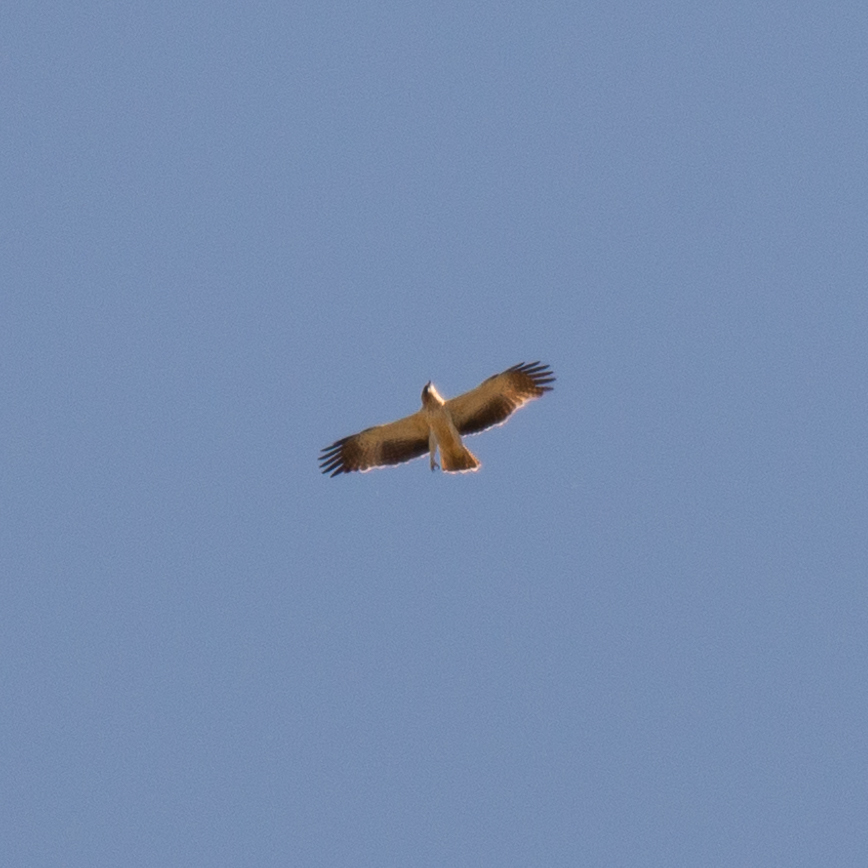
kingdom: Animalia
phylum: Chordata
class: Aves
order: Accipitriformes
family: Accipitridae
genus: Hieraaetus
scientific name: Hieraaetus pennatus
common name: Booted eagle
